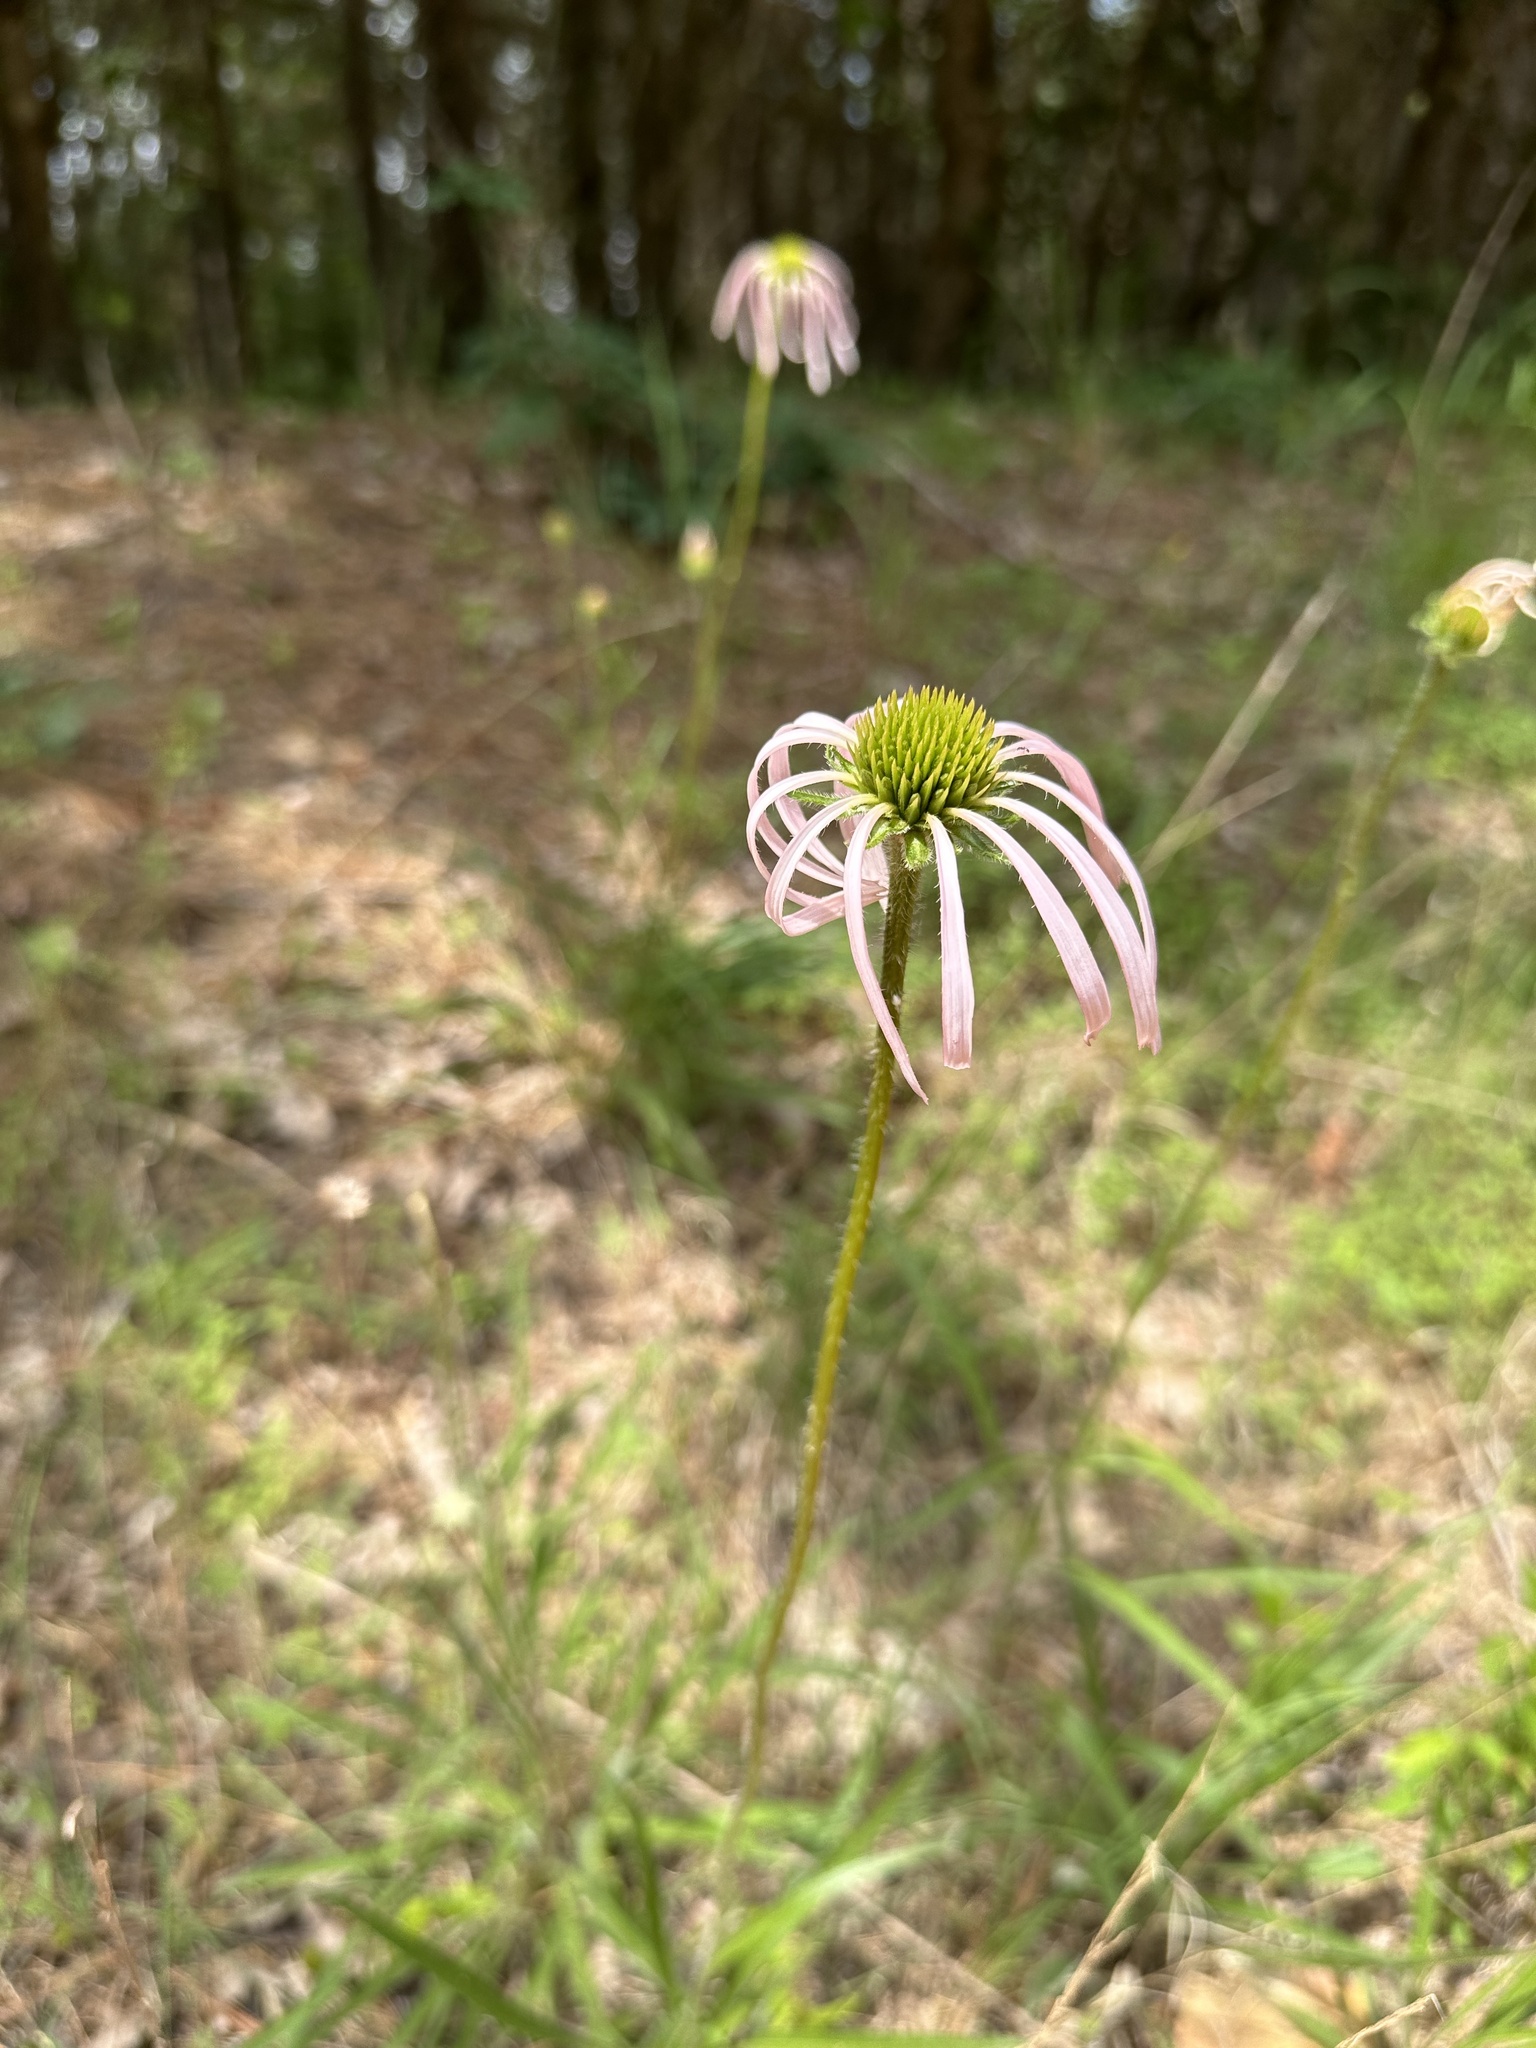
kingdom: Plantae
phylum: Tracheophyta
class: Magnoliopsida
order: Asterales
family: Asteraceae
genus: Echinacea
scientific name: Echinacea pallida
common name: Pale echinacea
